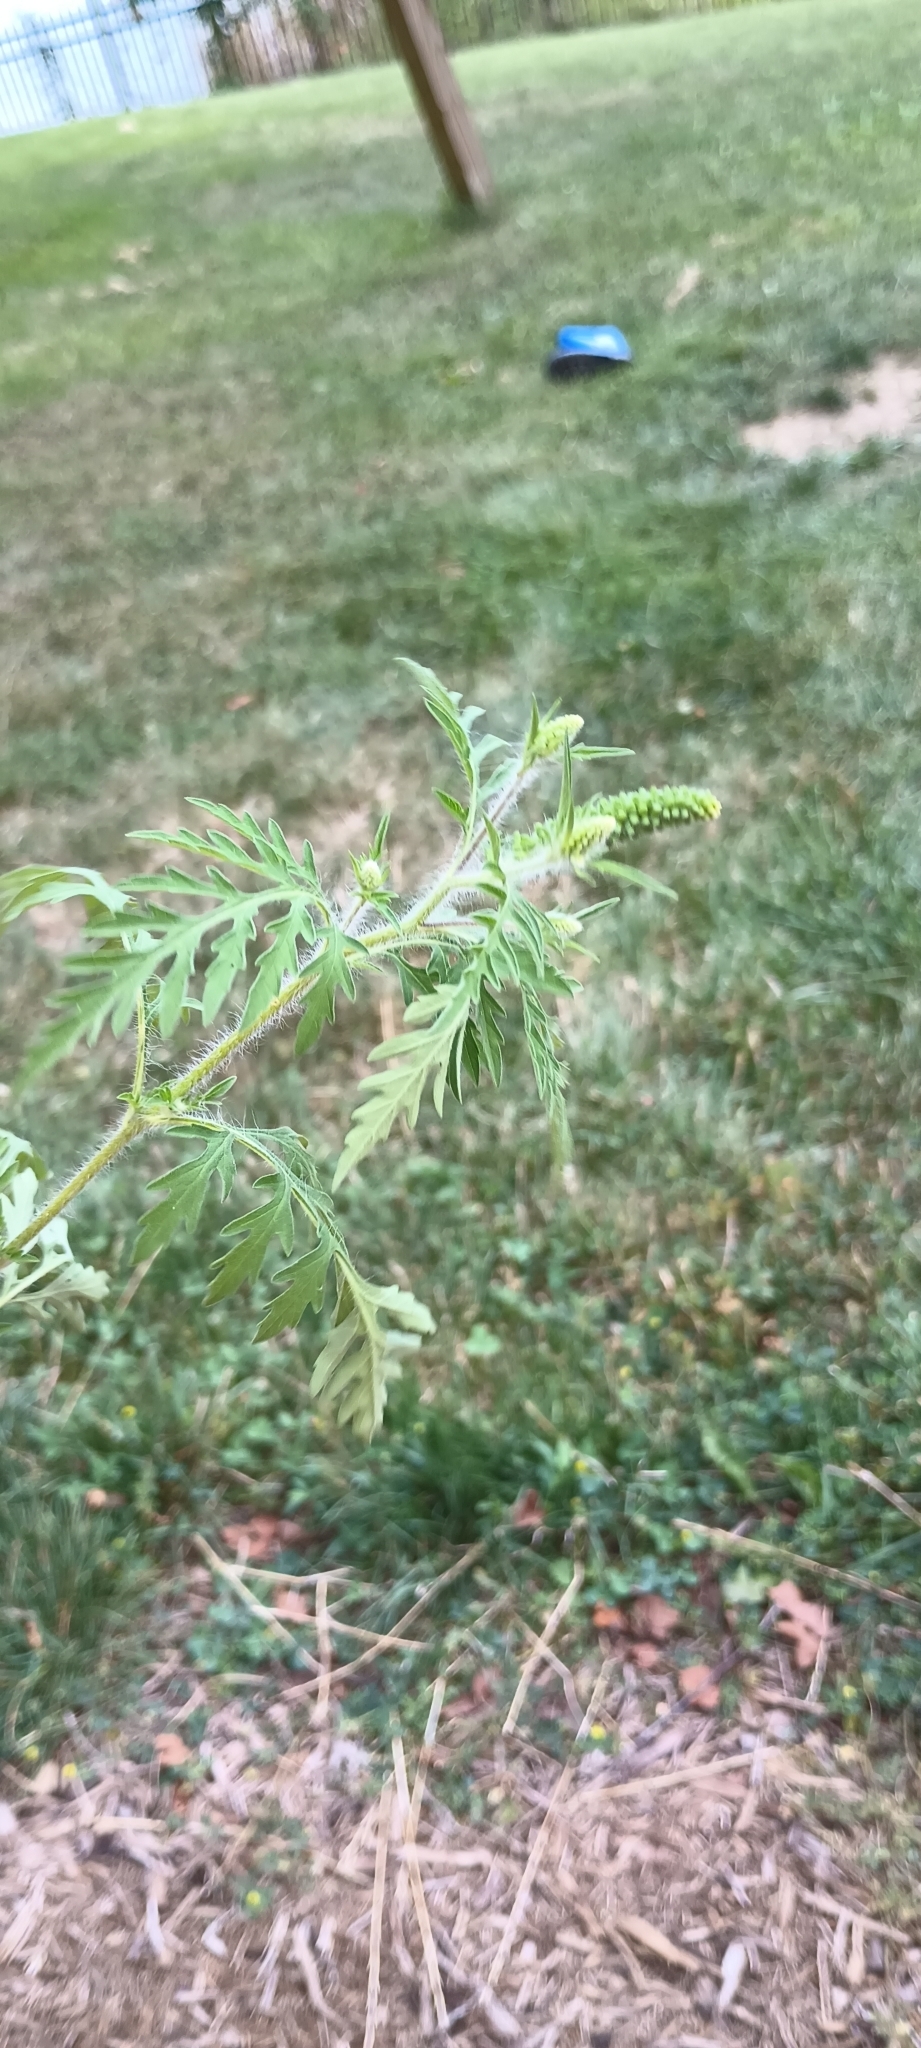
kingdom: Plantae
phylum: Tracheophyta
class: Magnoliopsida
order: Asterales
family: Asteraceae
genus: Ambrosia
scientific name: Ambrosia artemisiifolia
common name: Annual ragweed
